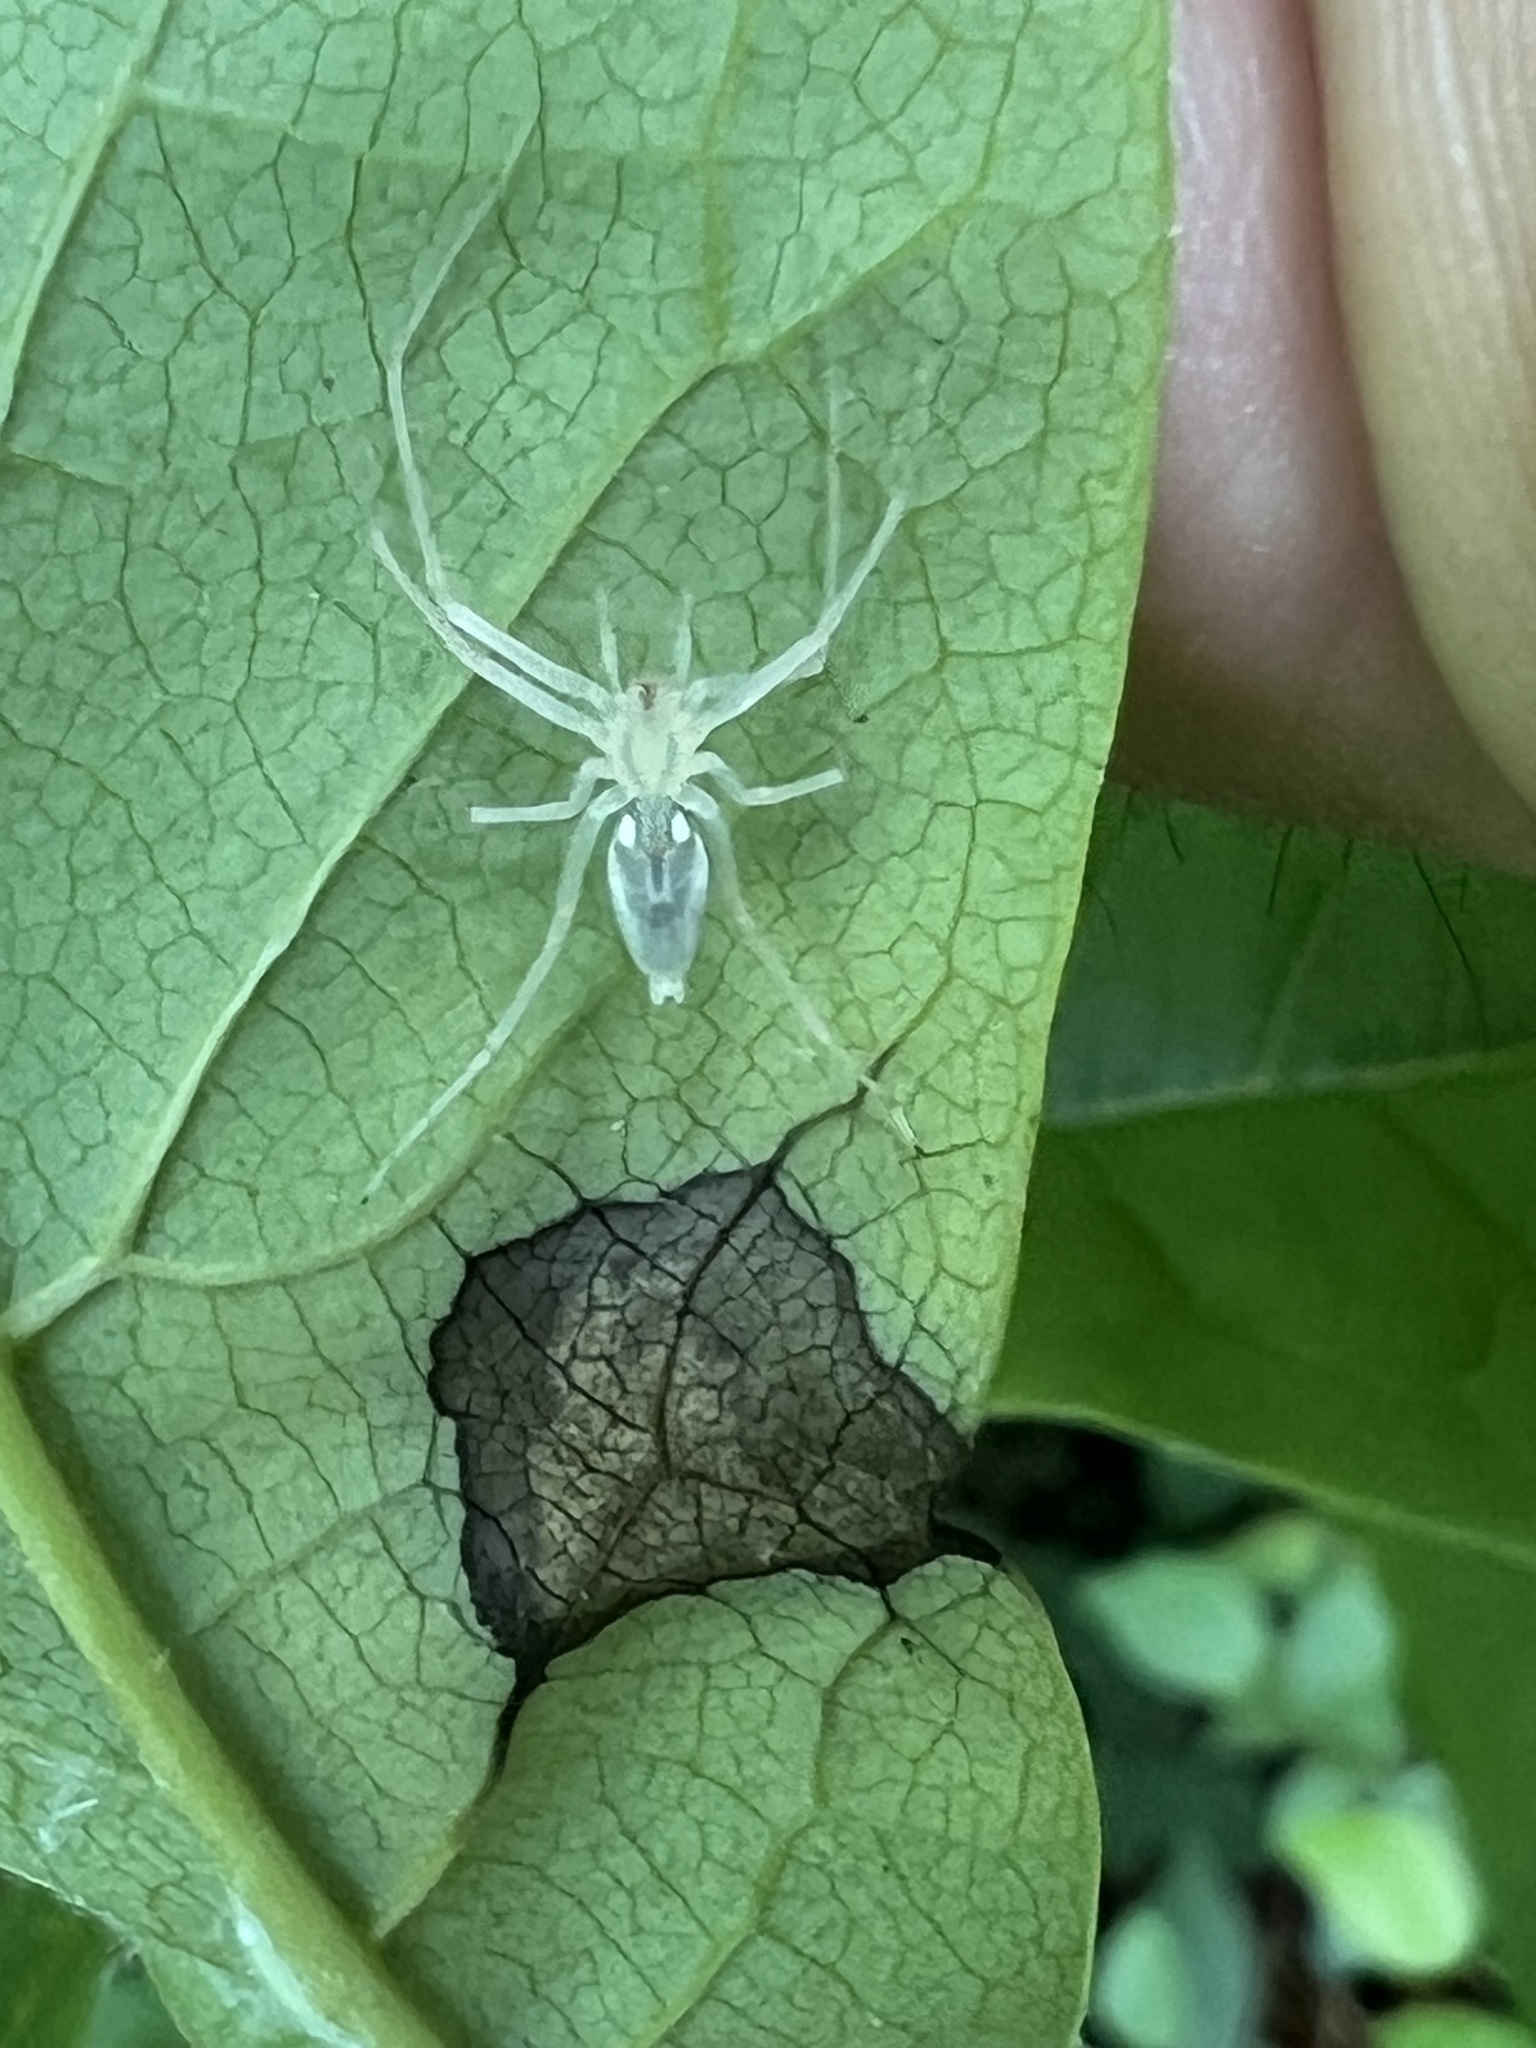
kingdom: Animalia
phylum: Arthropoda
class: Arachnida
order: Araneae
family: Anyphaenidae
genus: Wulfila
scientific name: Wulfila albens
